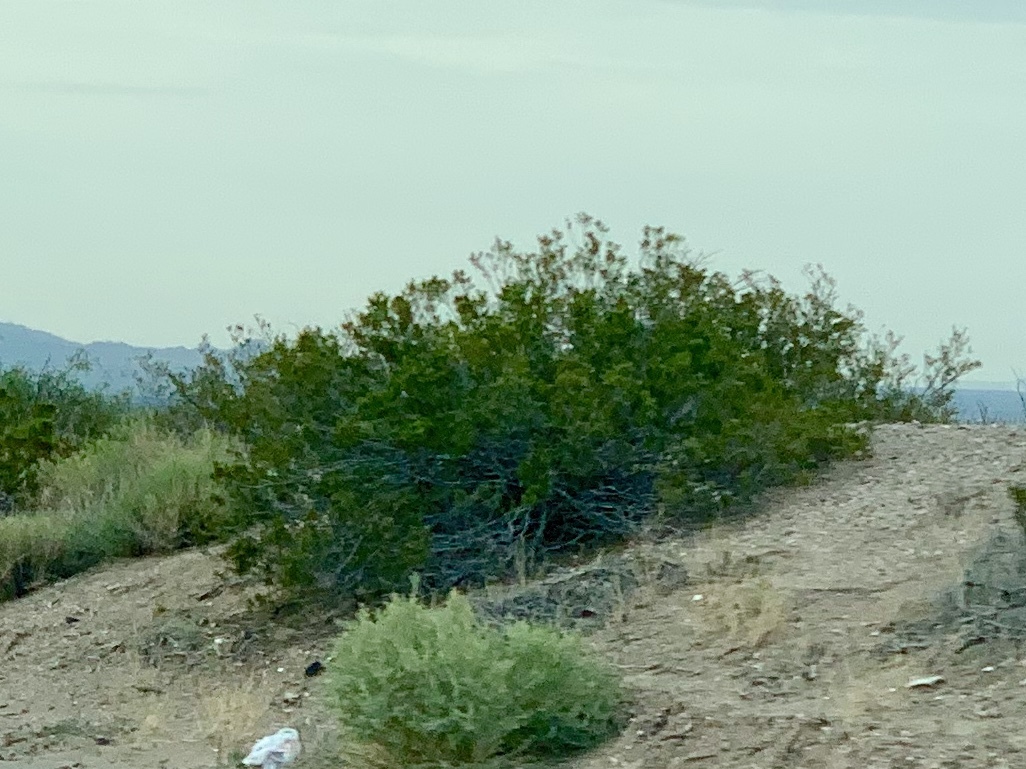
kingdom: Plantae
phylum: Tracheophyta
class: Magnoliopsida
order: Zygophyllales
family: Zygophyllaceae
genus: Larrea
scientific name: Larrea tridentata
